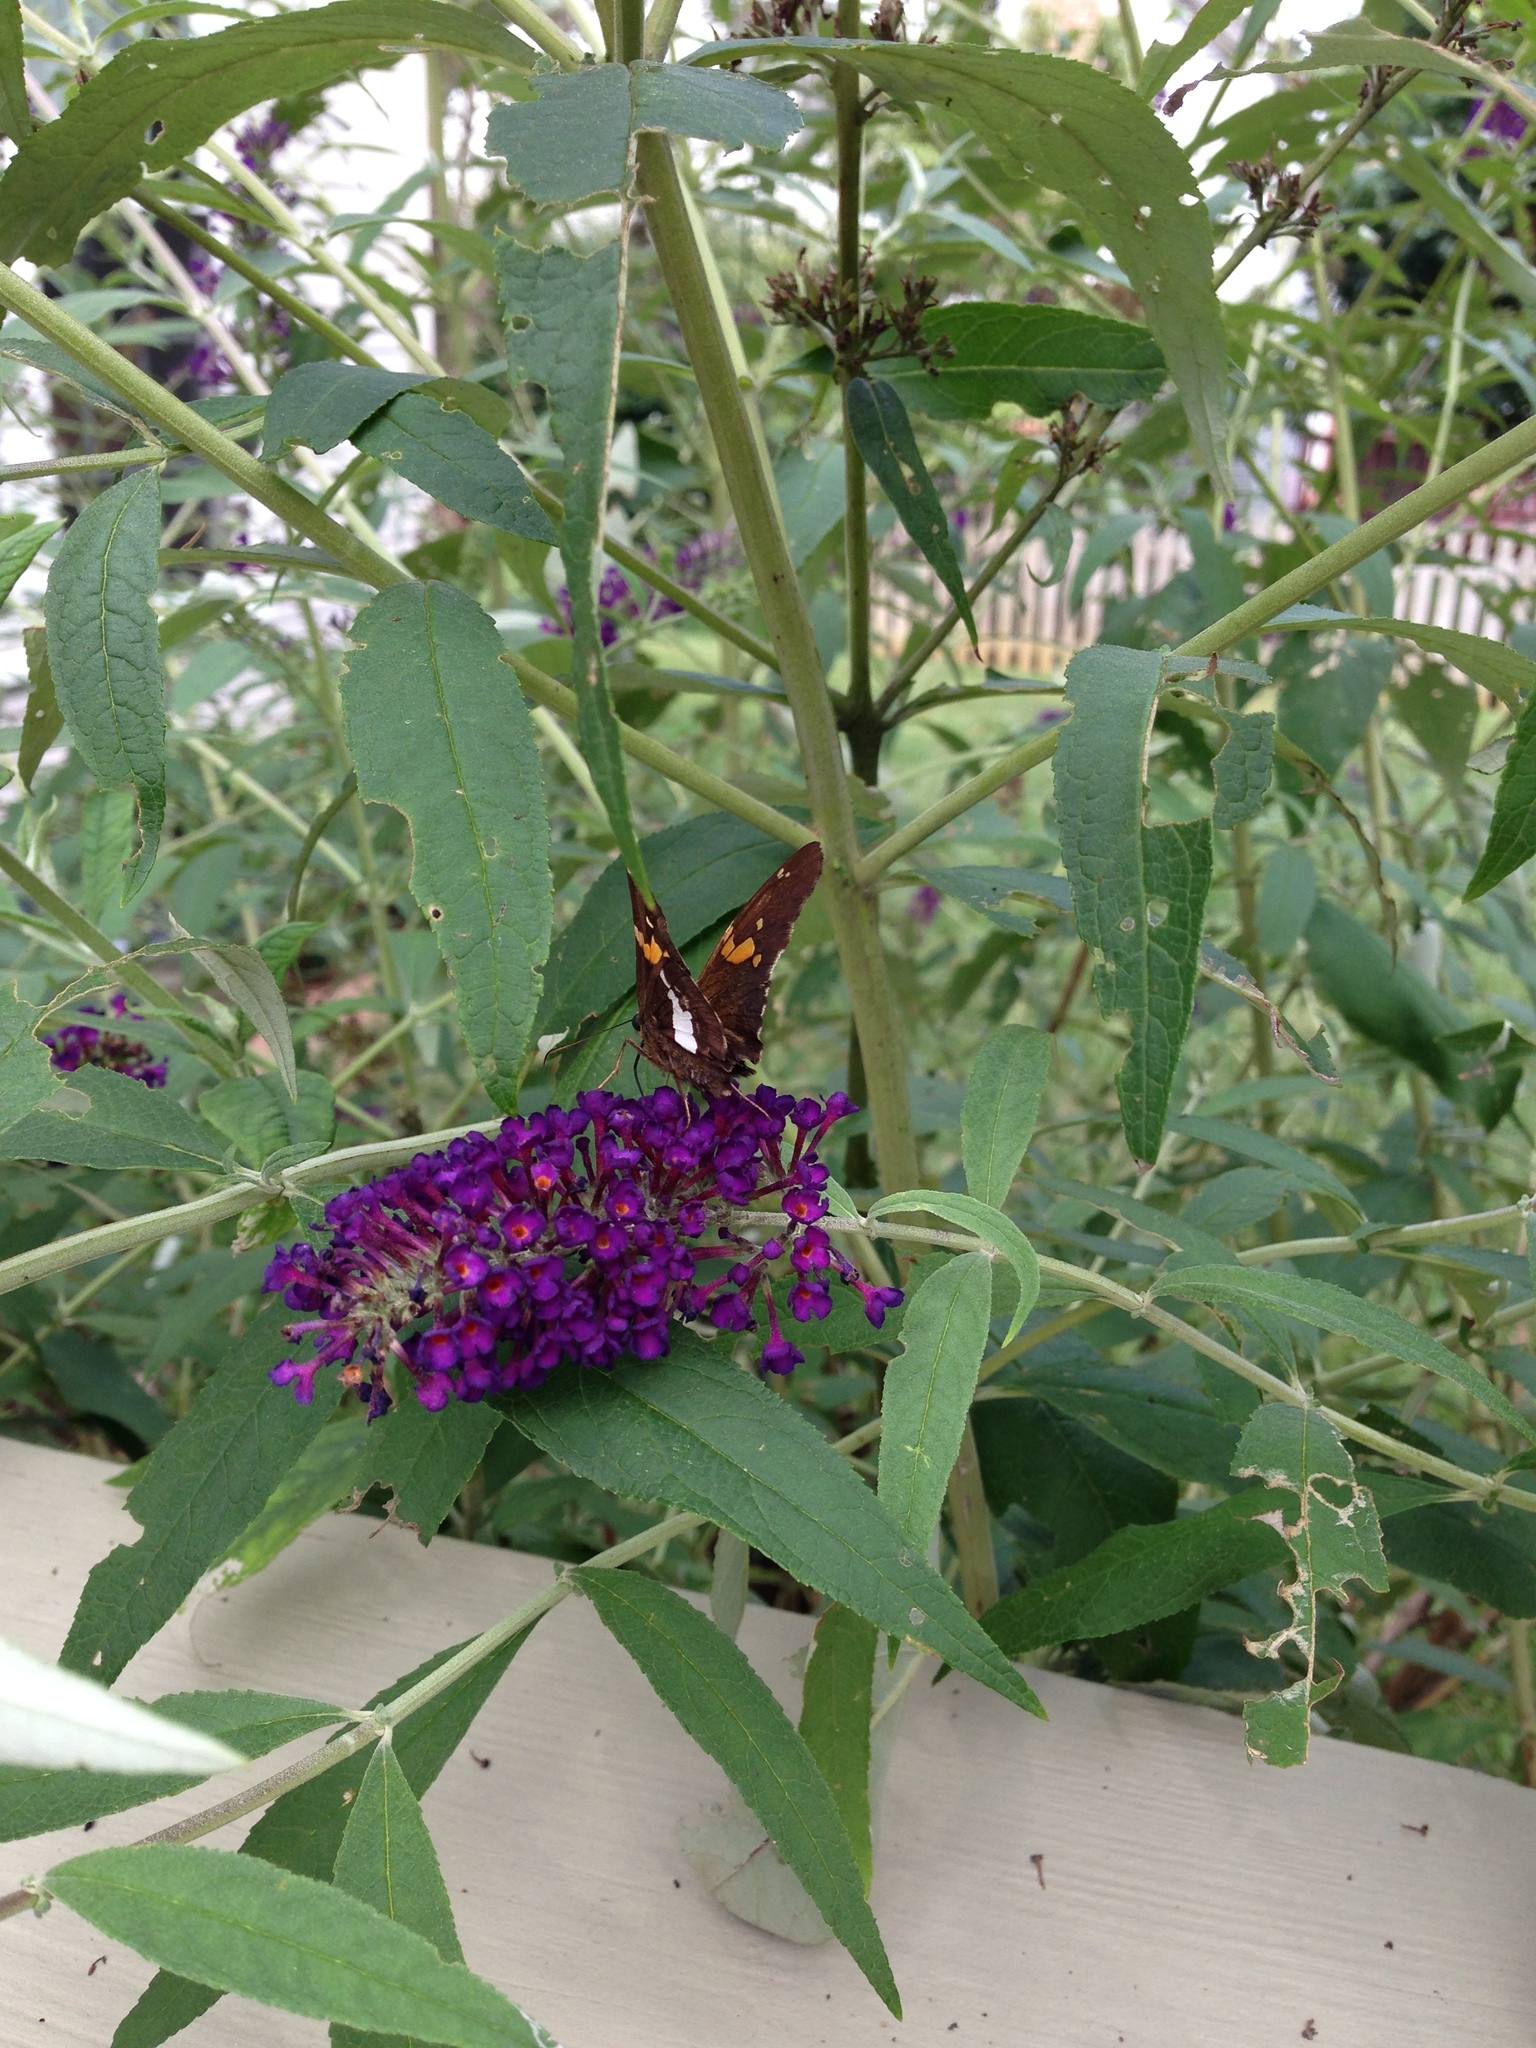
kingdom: Animalia
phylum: Arthropoda
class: Insecta
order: Lepidoptera
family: Hesperiidae
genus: Epargyreus
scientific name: Epargyreus clarus
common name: Silver-spotted skipper
